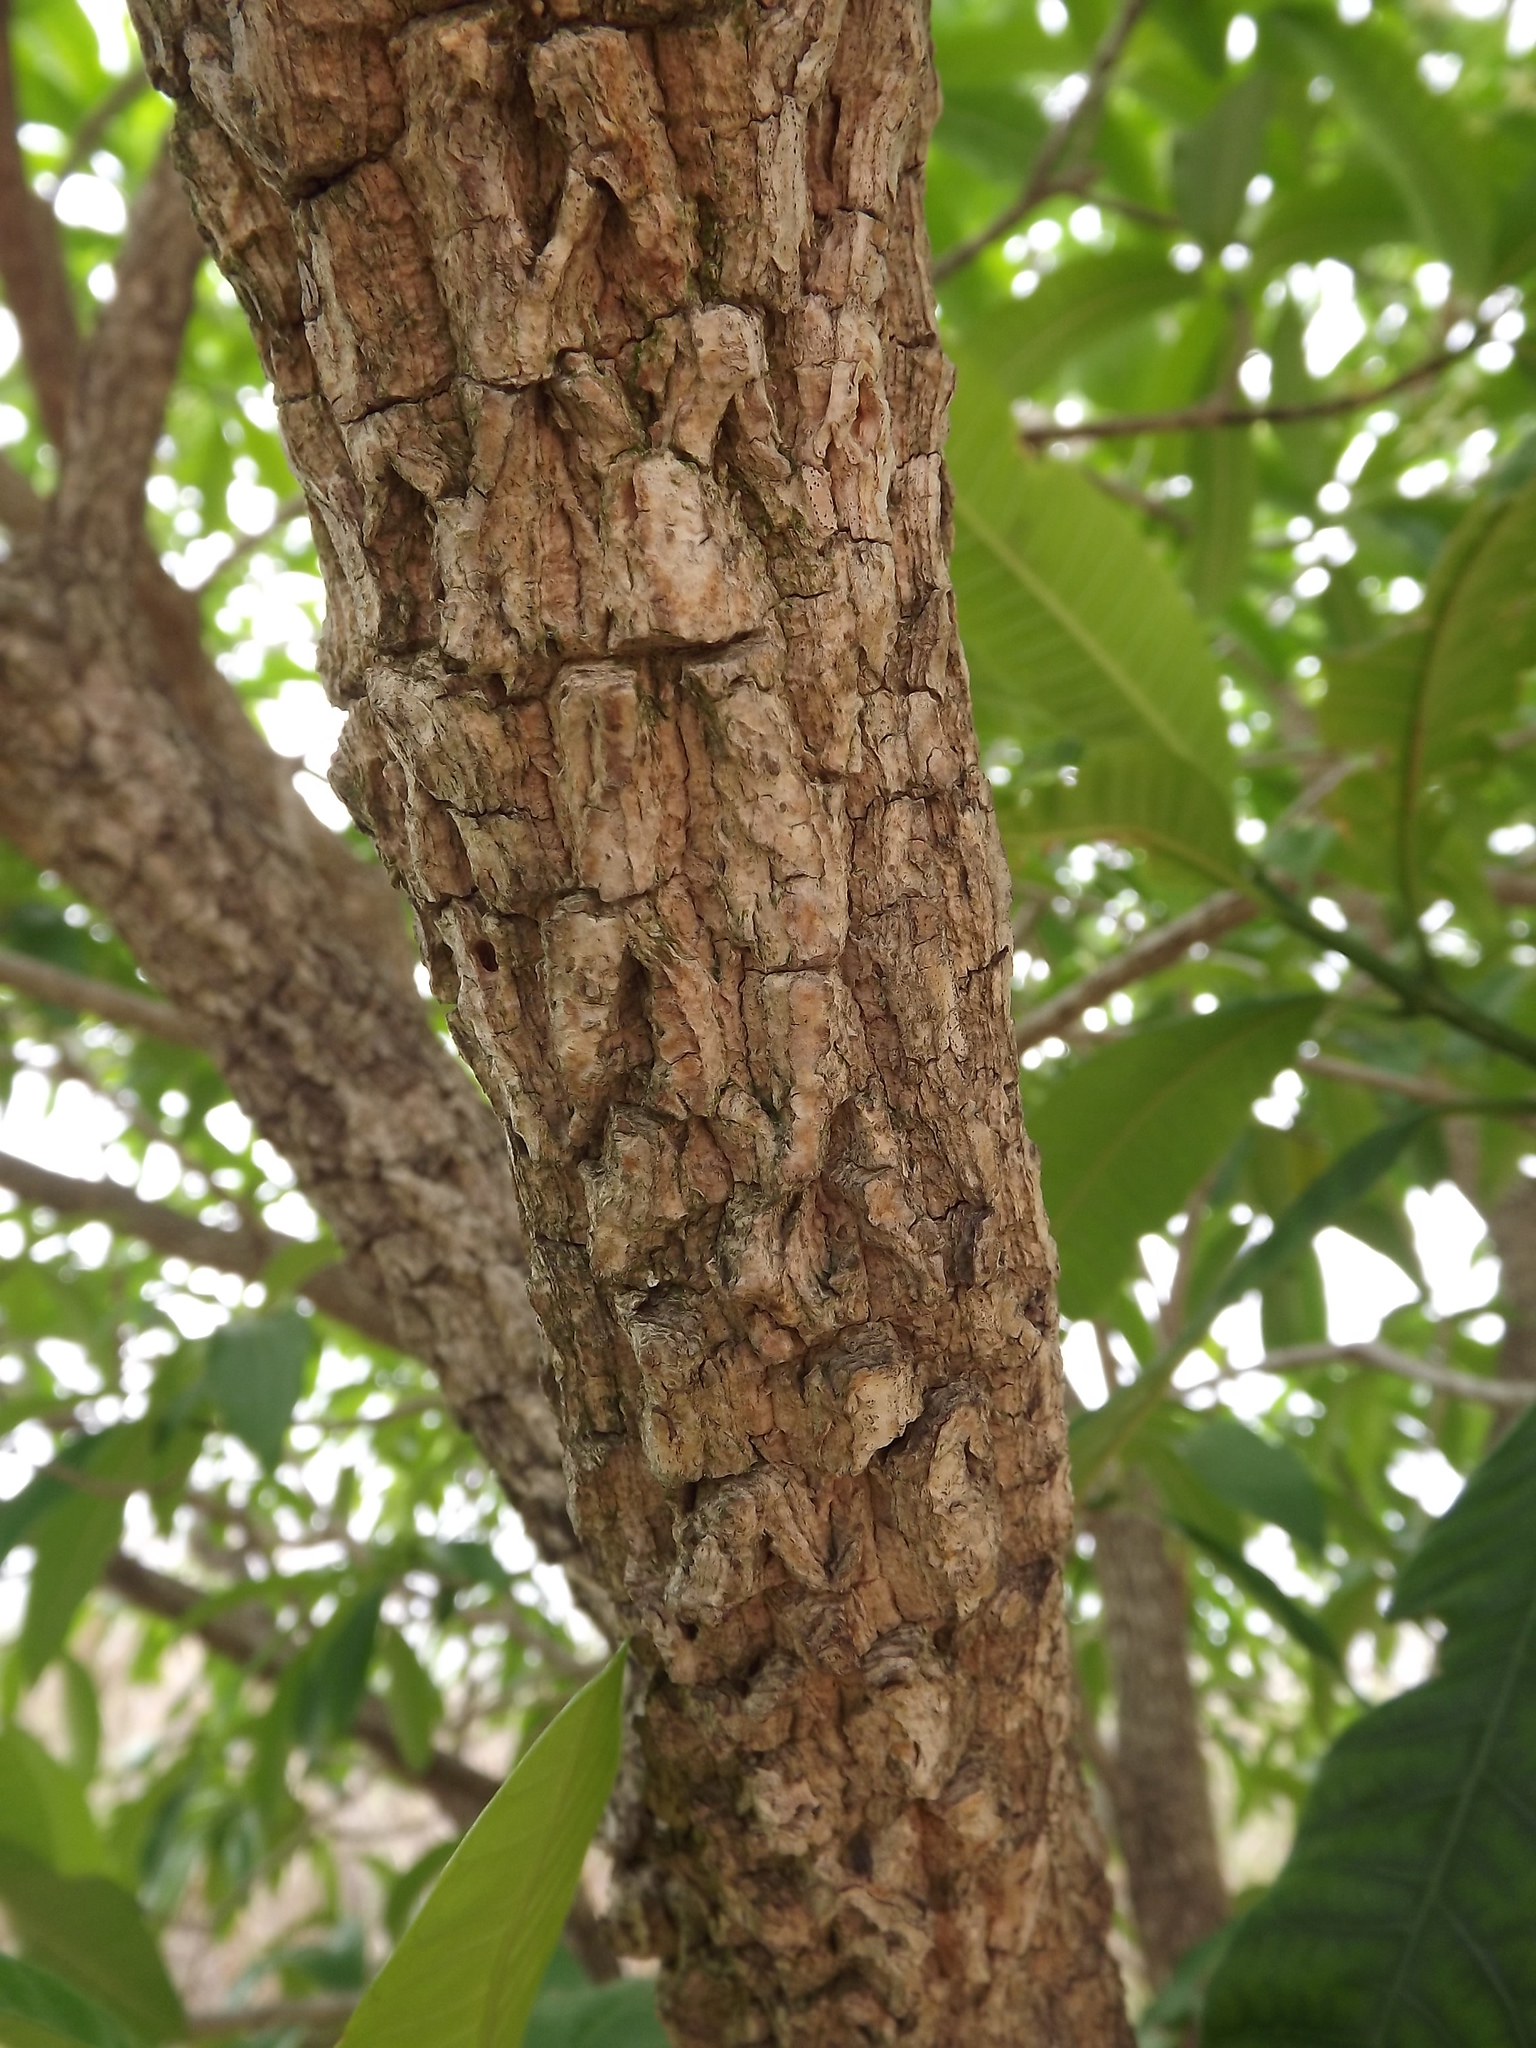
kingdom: Plantae
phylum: Tracheophyta
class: Magnoliopsida
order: Gentianales
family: Apocynaceae
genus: Tabernaemontana
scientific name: Tabernaemontana elegans
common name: Toadtree
